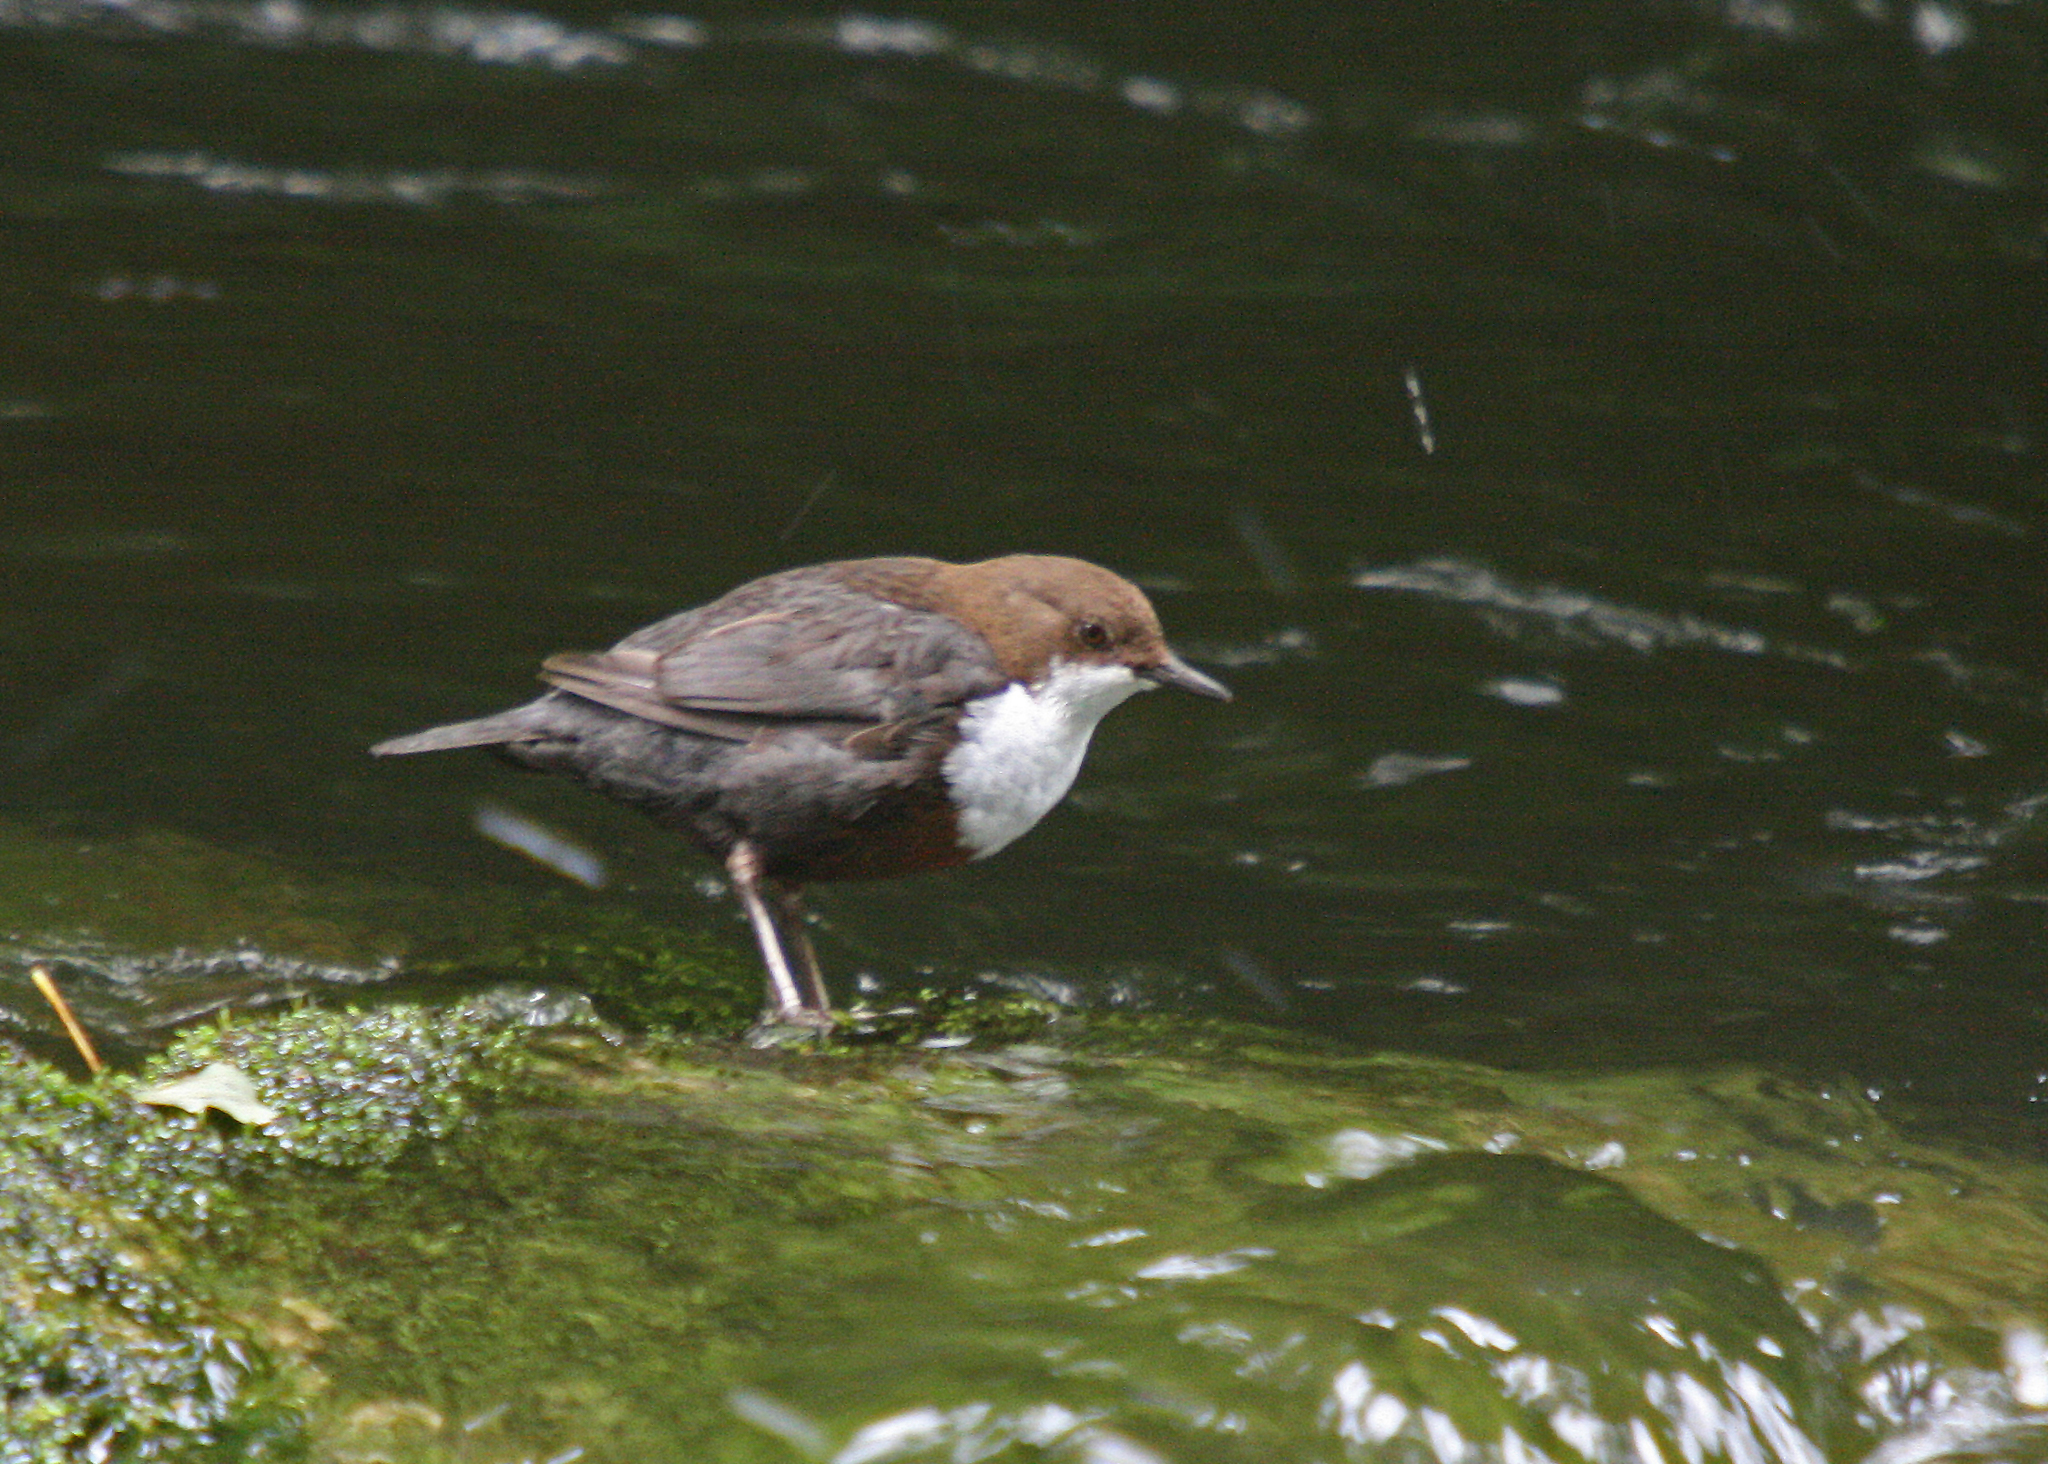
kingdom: Animalia
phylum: Chordata
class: Aves
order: Passeriformes
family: Cinclidae
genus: Cinclus
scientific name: Cinclus cinclus
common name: White-throated dipper
